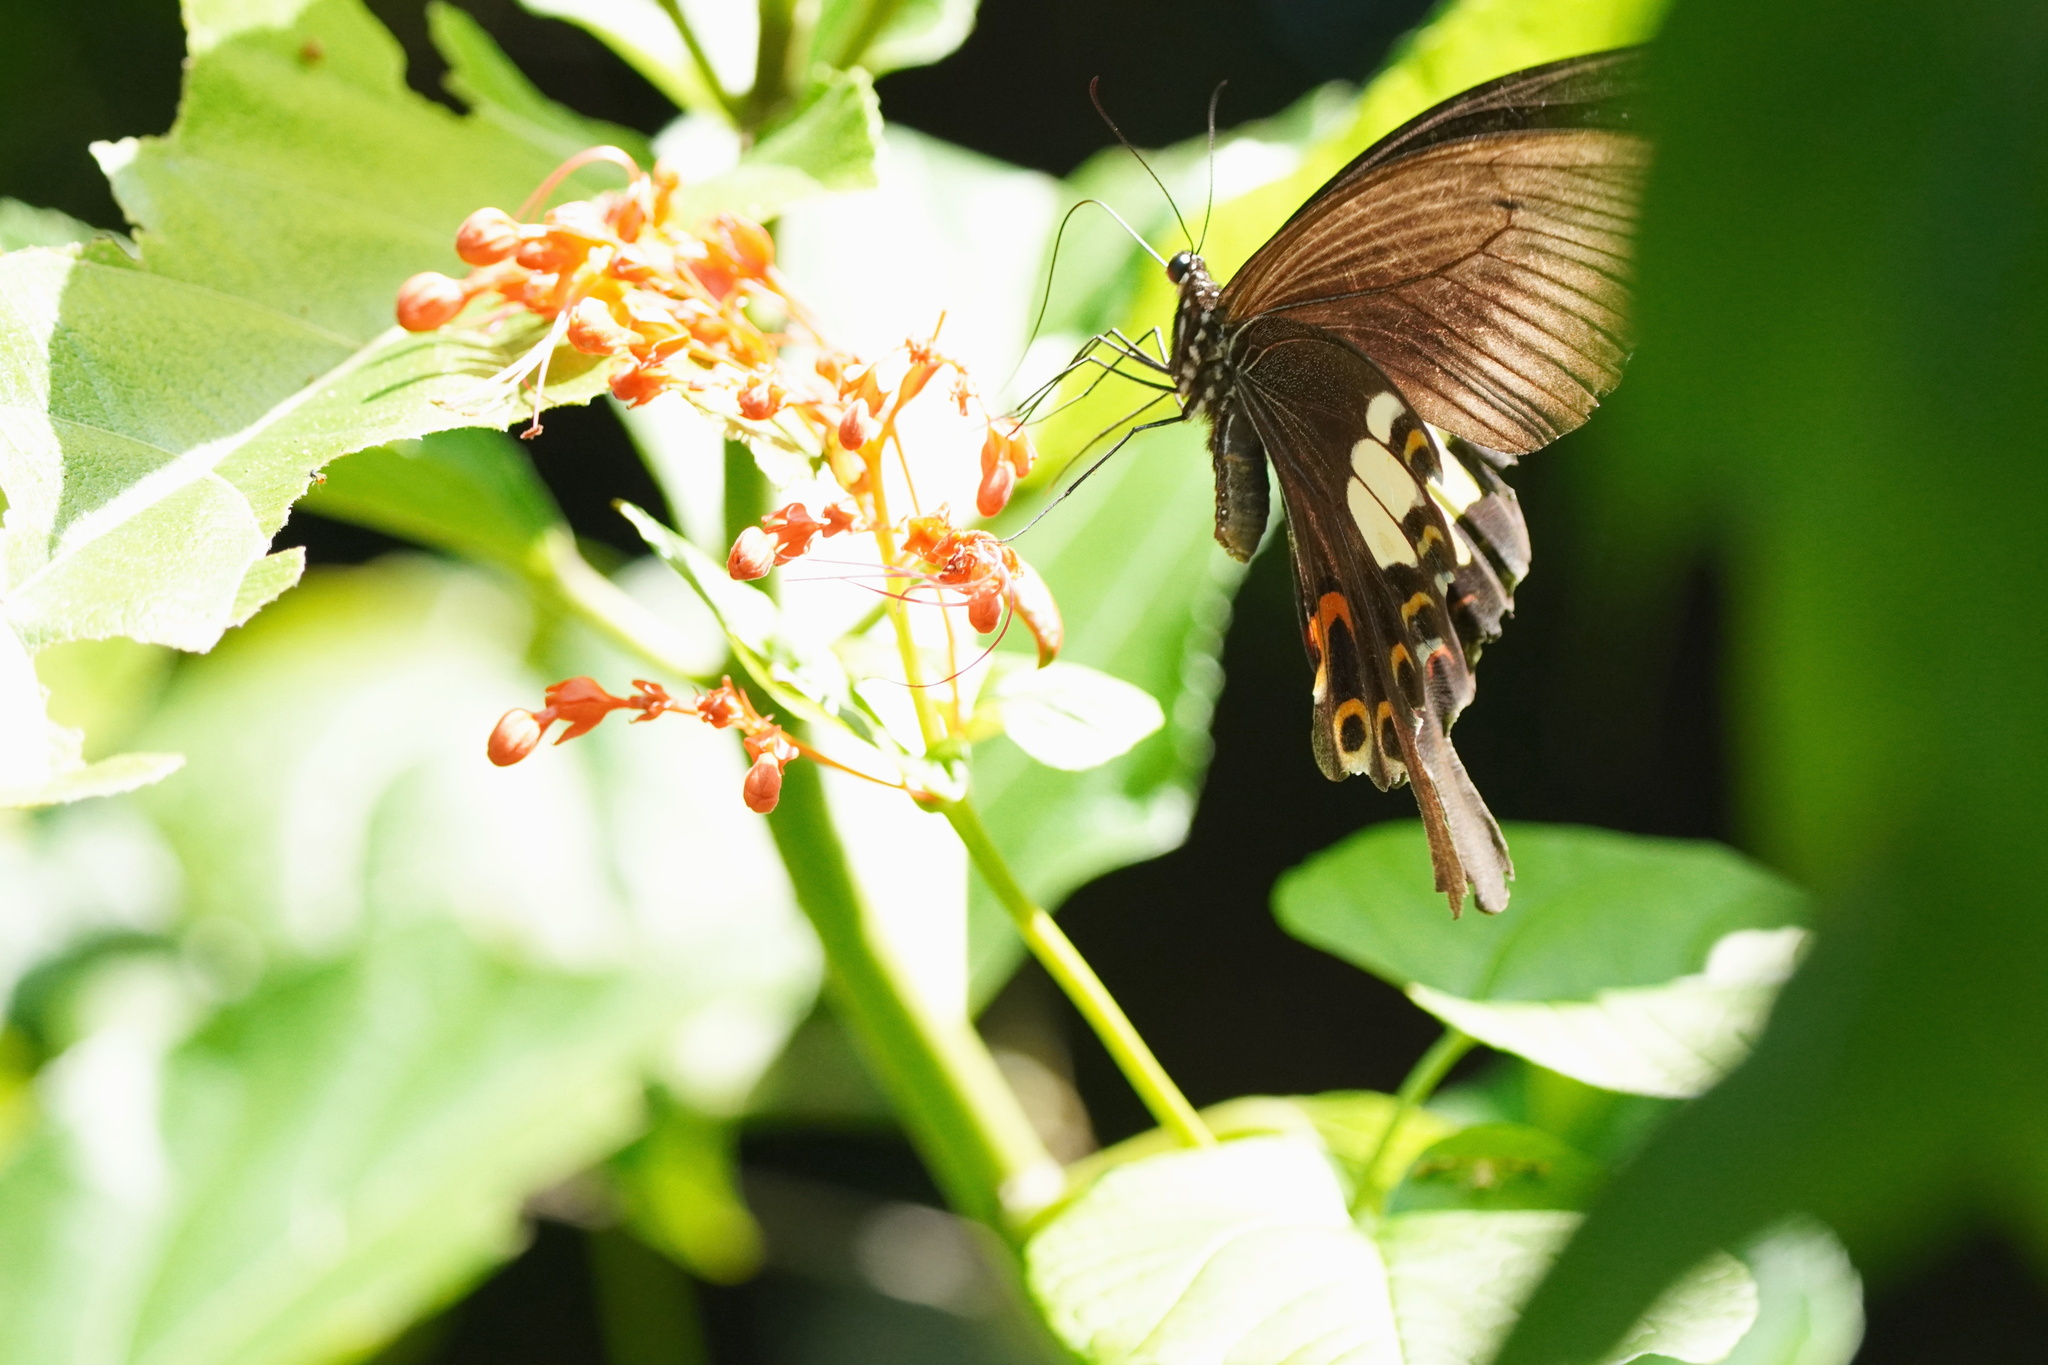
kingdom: Animalia
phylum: Arthropoda
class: Insecta
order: Lepidoptera
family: Papilionidae
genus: Papilio
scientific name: Papilio helenus
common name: Red helen
